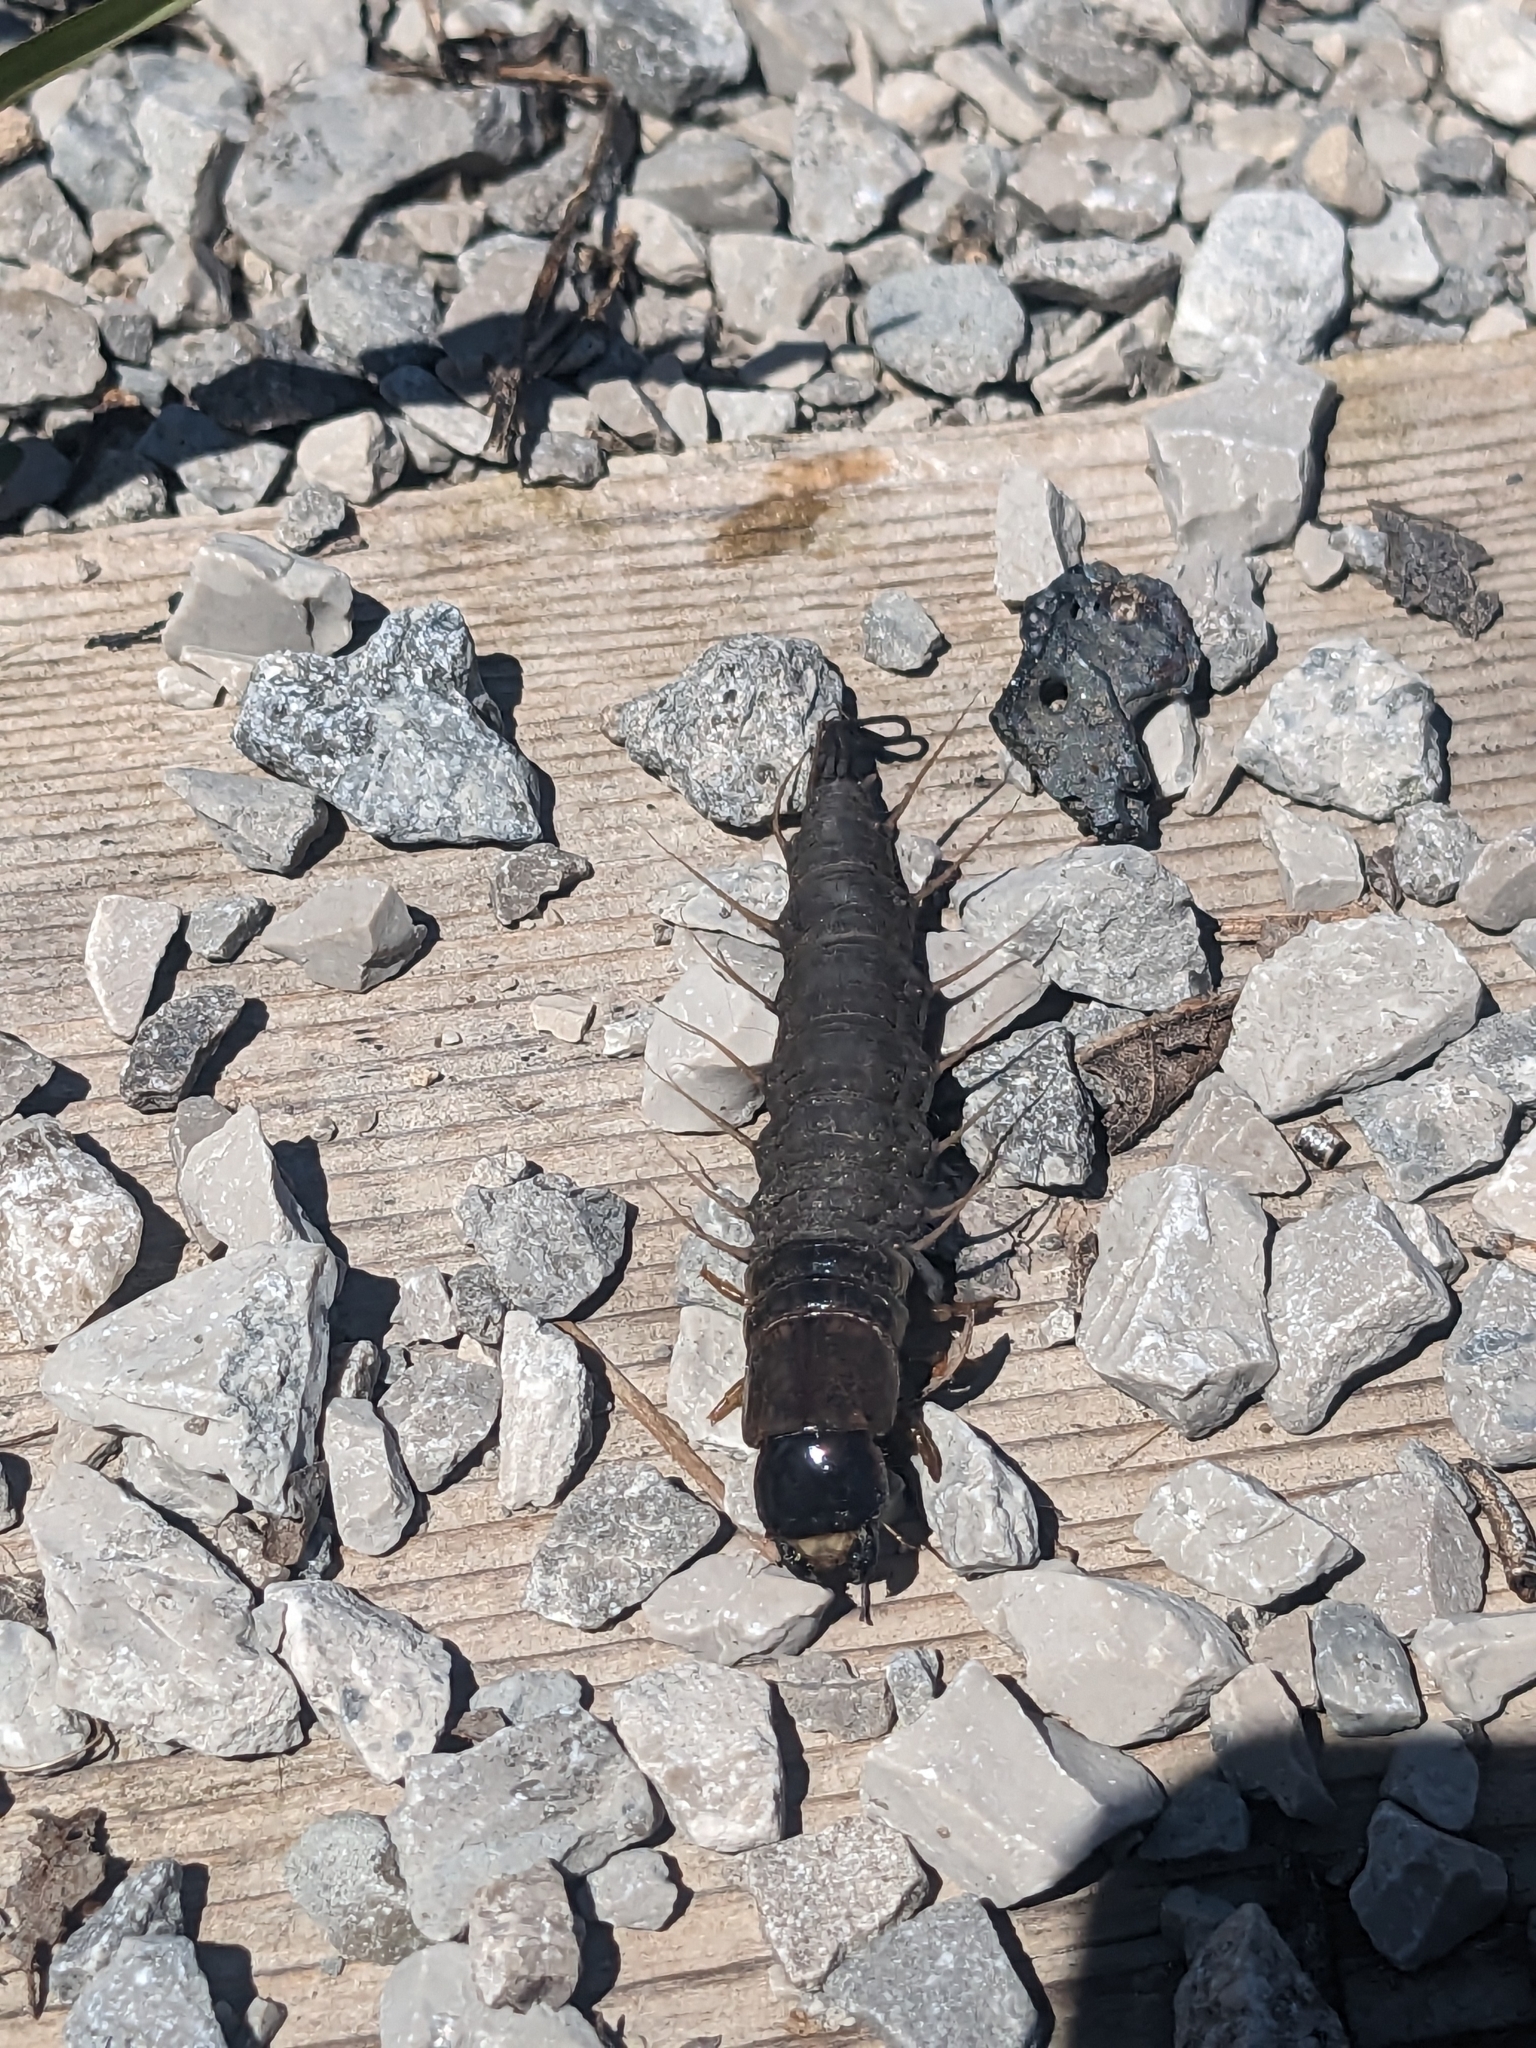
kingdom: Animalia
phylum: Arthropoda
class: Insecta
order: Megaloptera
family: Corydalidae
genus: Chauliodes
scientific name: Chauliodes
